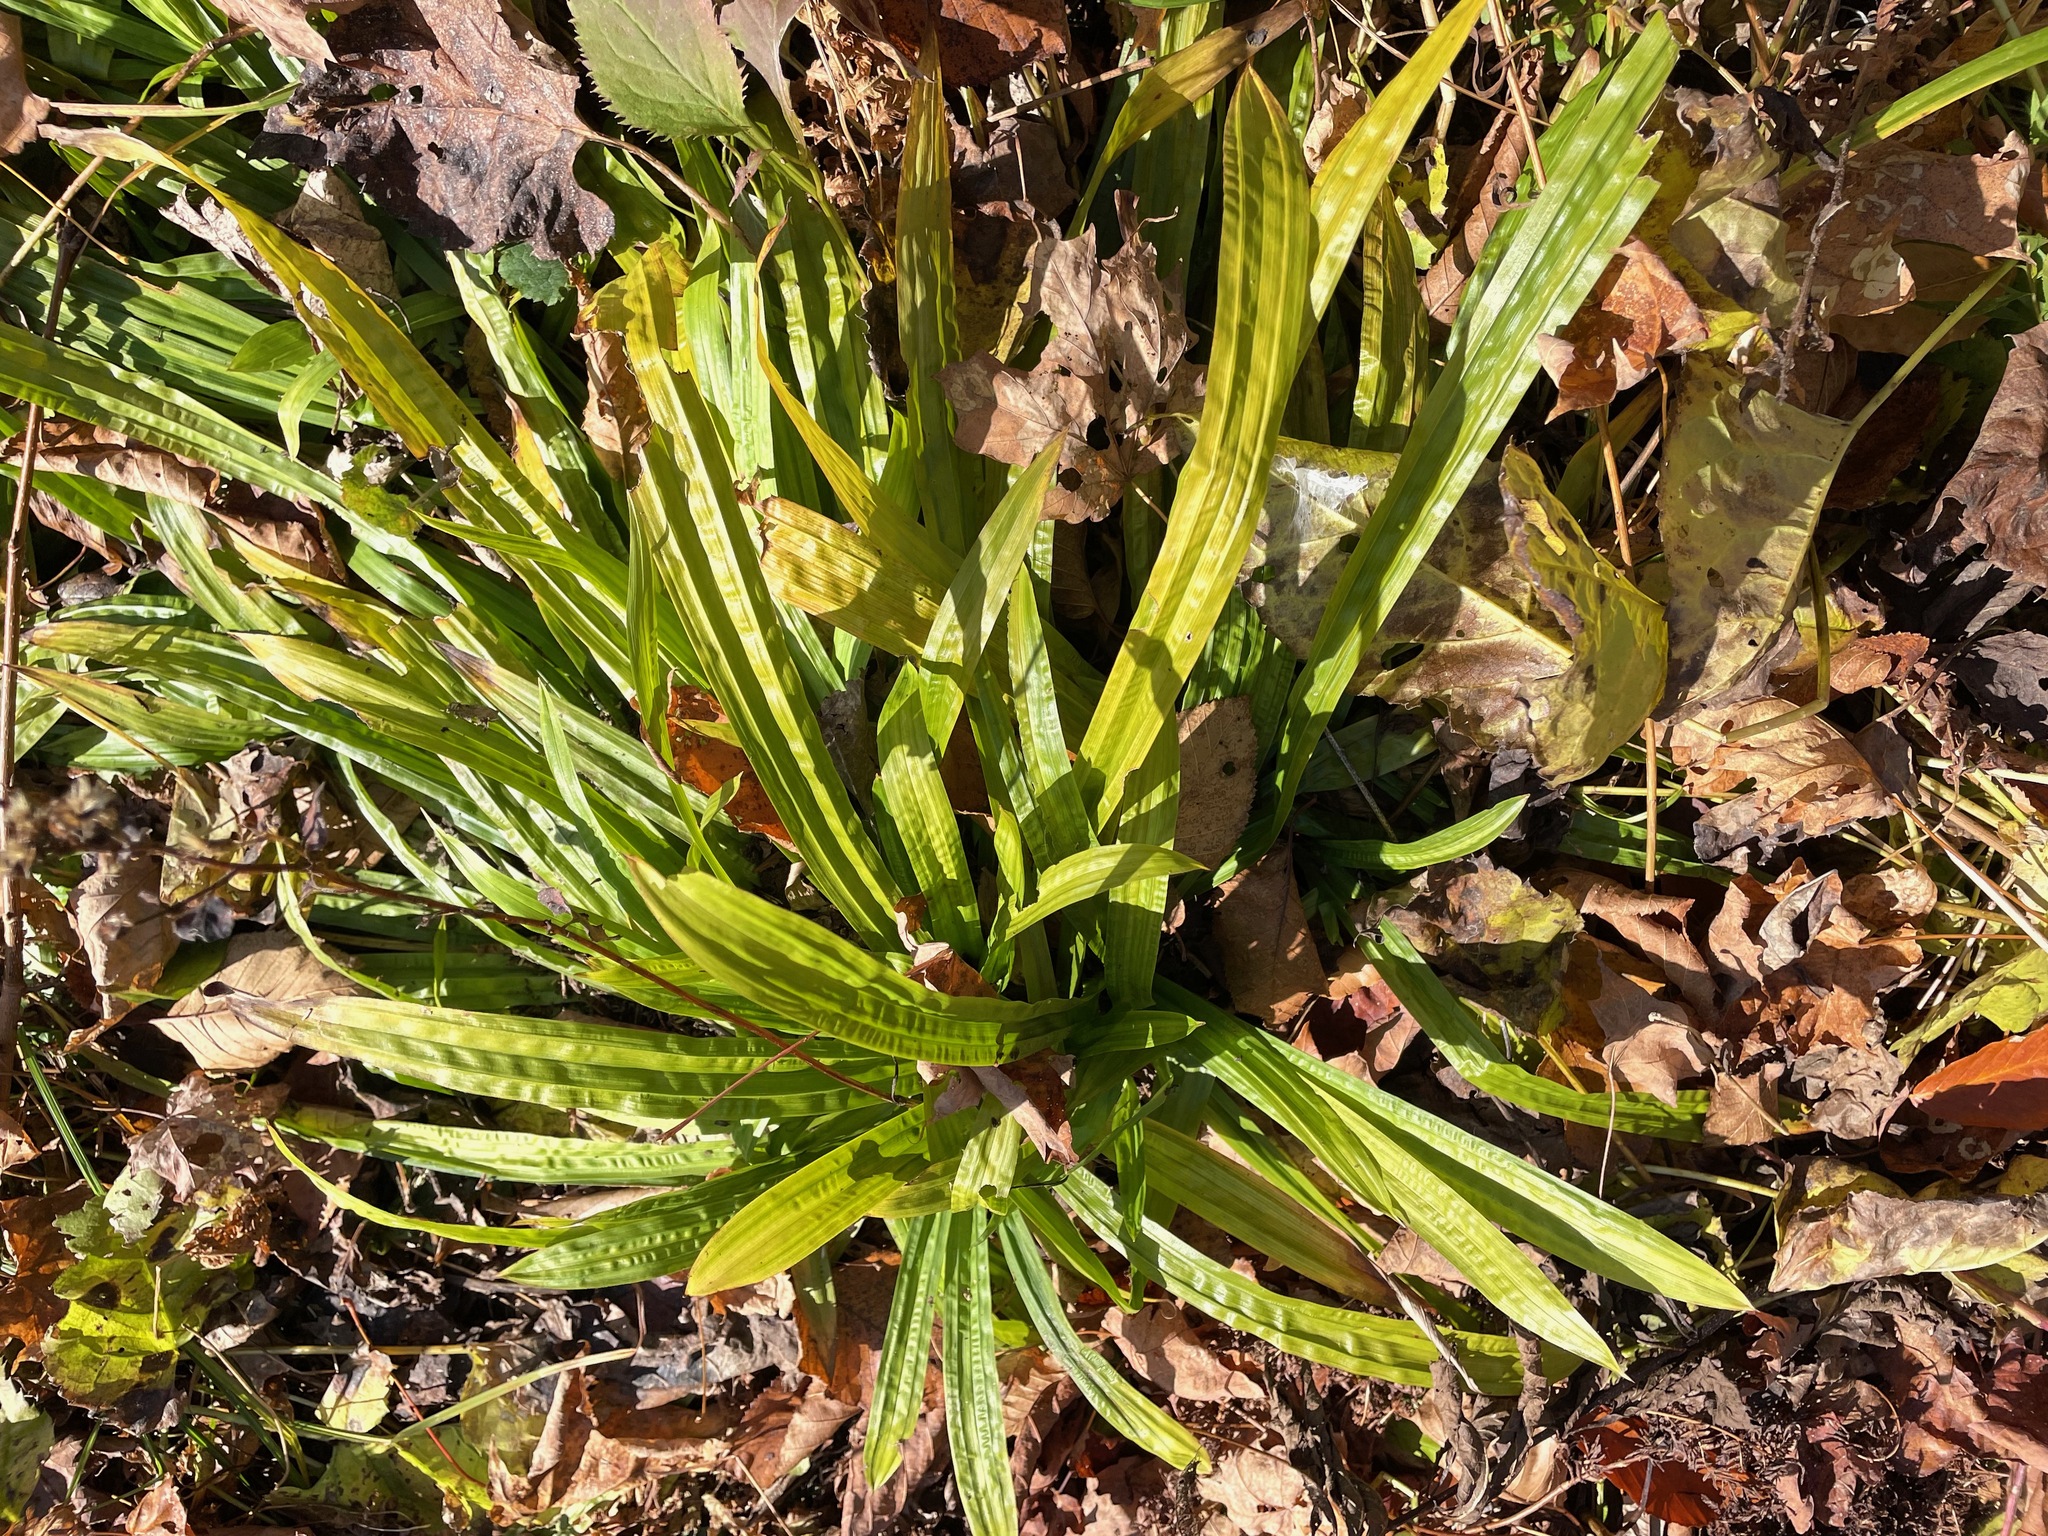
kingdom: Plantae
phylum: Tracheophyta
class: Liliopsida
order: Poales
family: Cyperaceae
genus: Carex
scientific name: Carex plantaginea
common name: Plantain-leaved sedge
